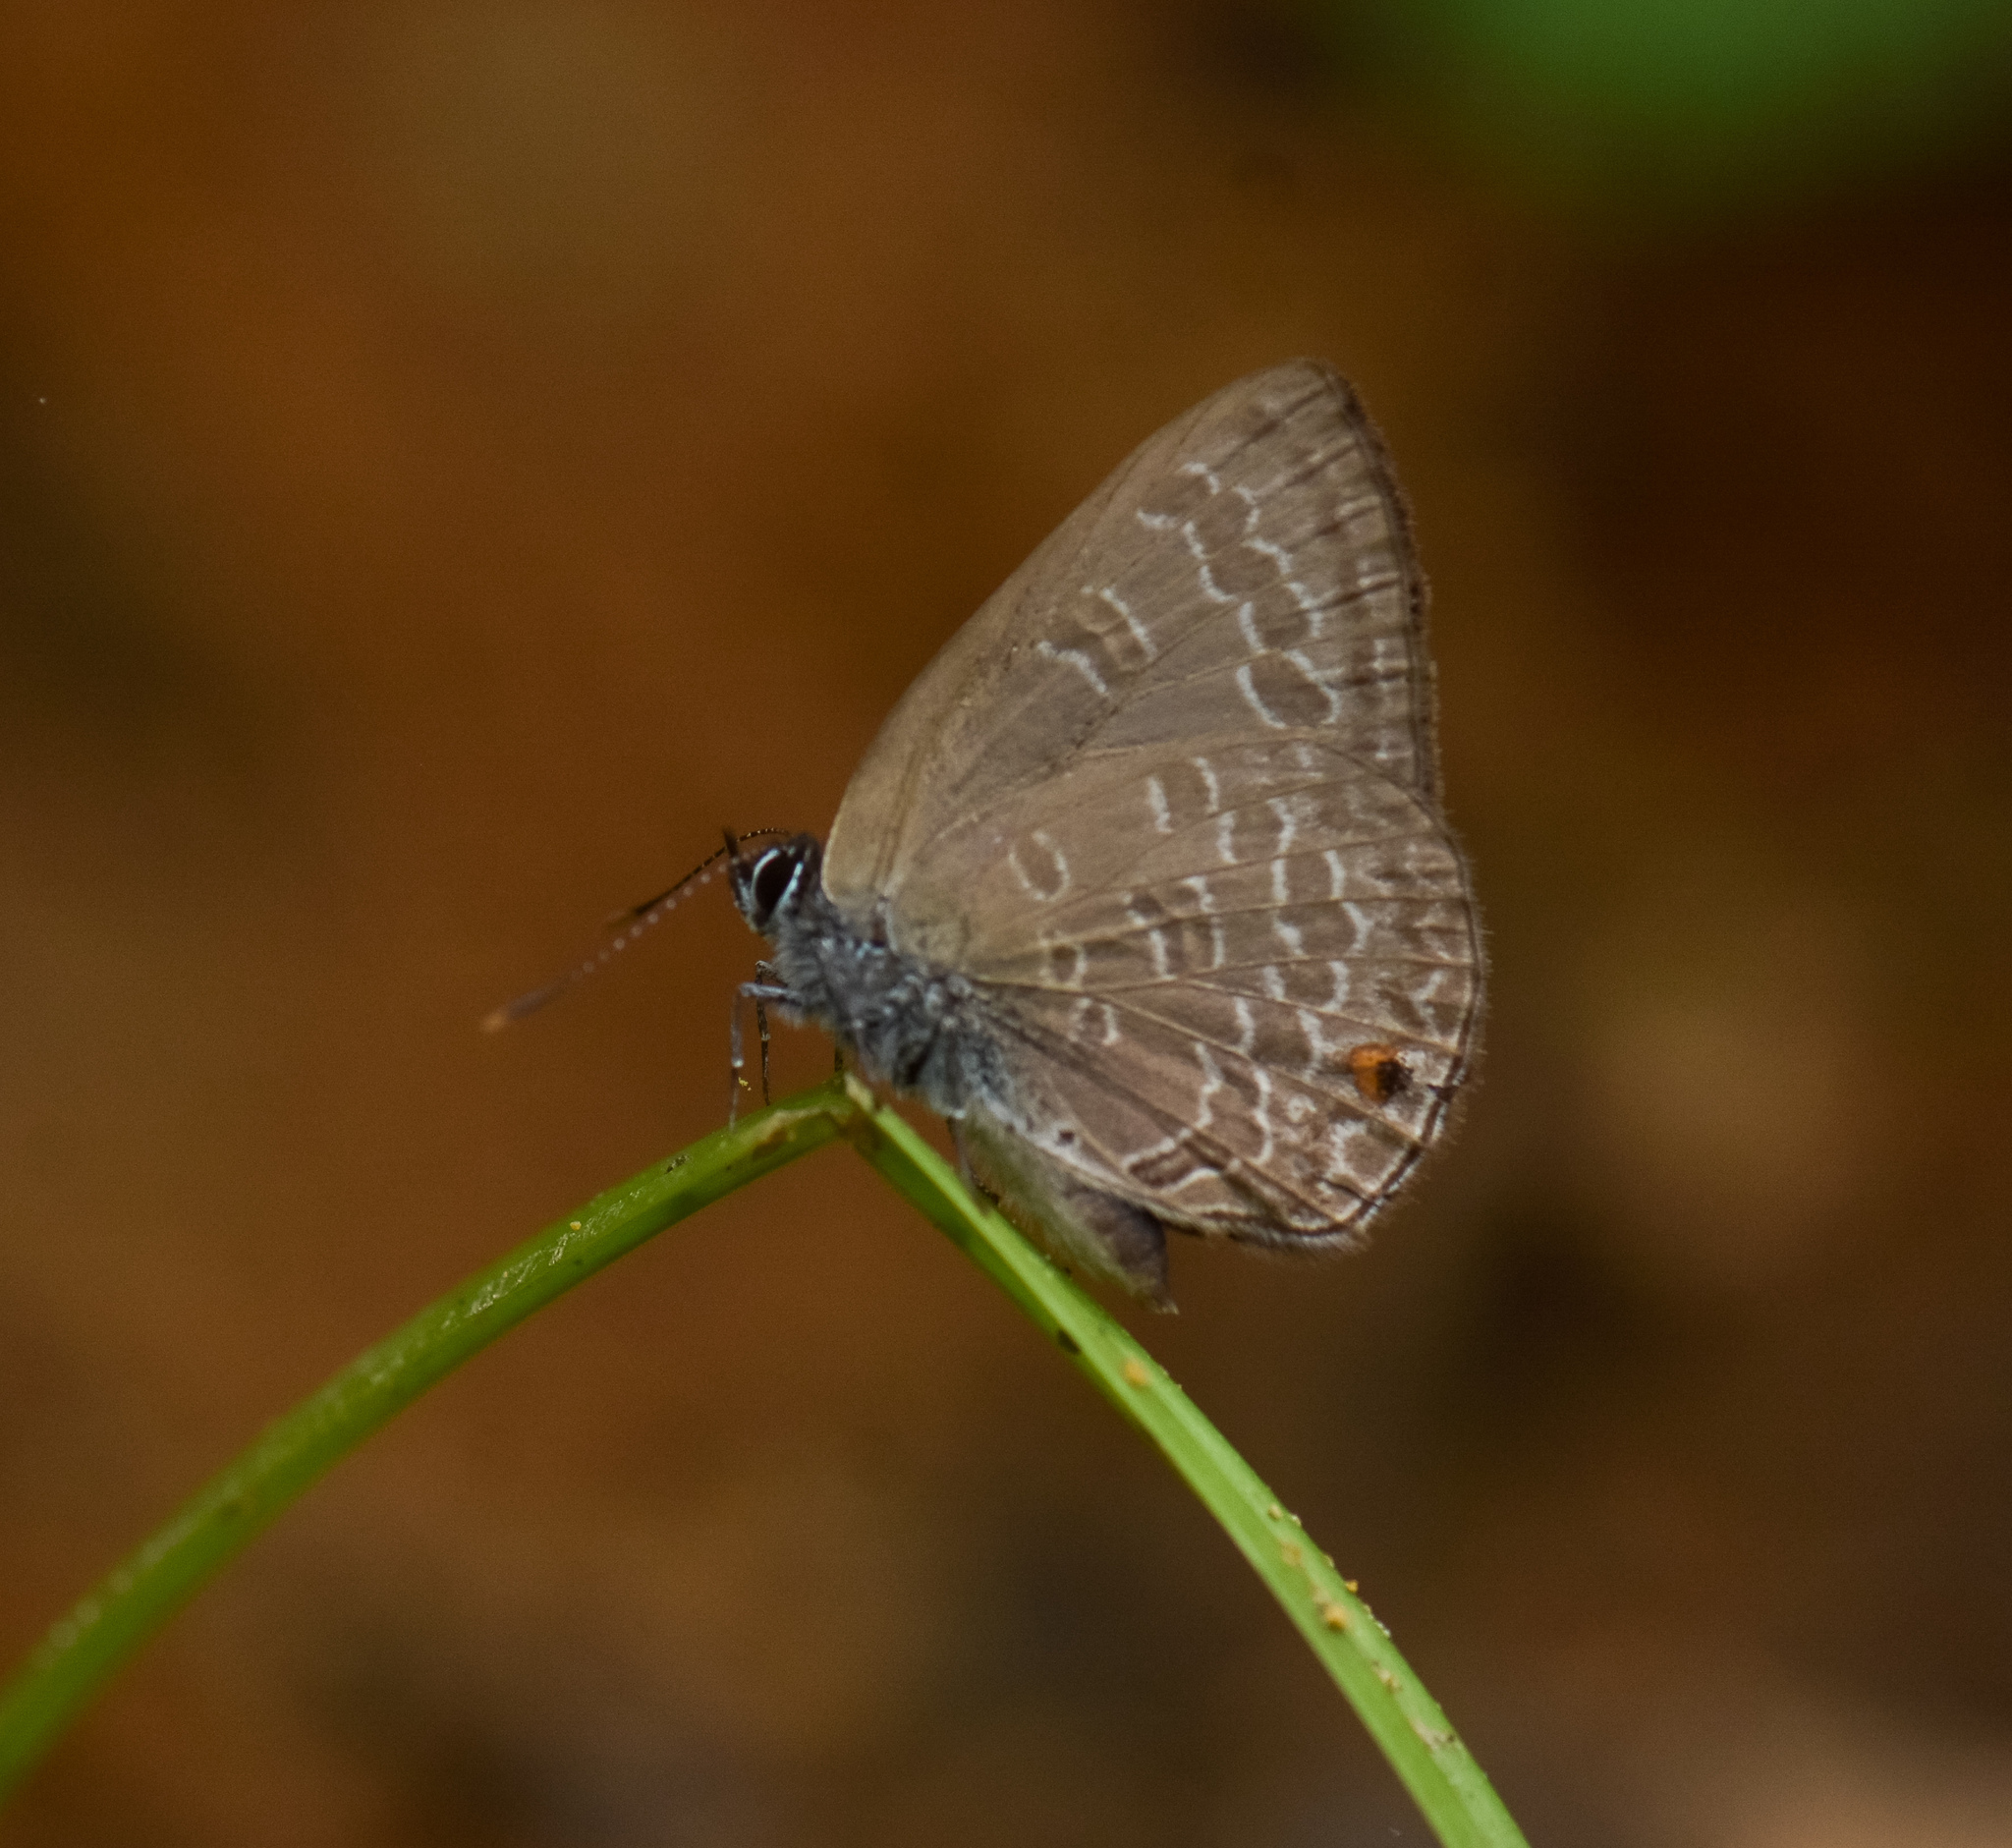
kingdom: Animalia
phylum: Arthropoda
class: Insecta
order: Lepidoptera
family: Lycaenidae
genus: Anthene
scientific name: Anthene emolus
